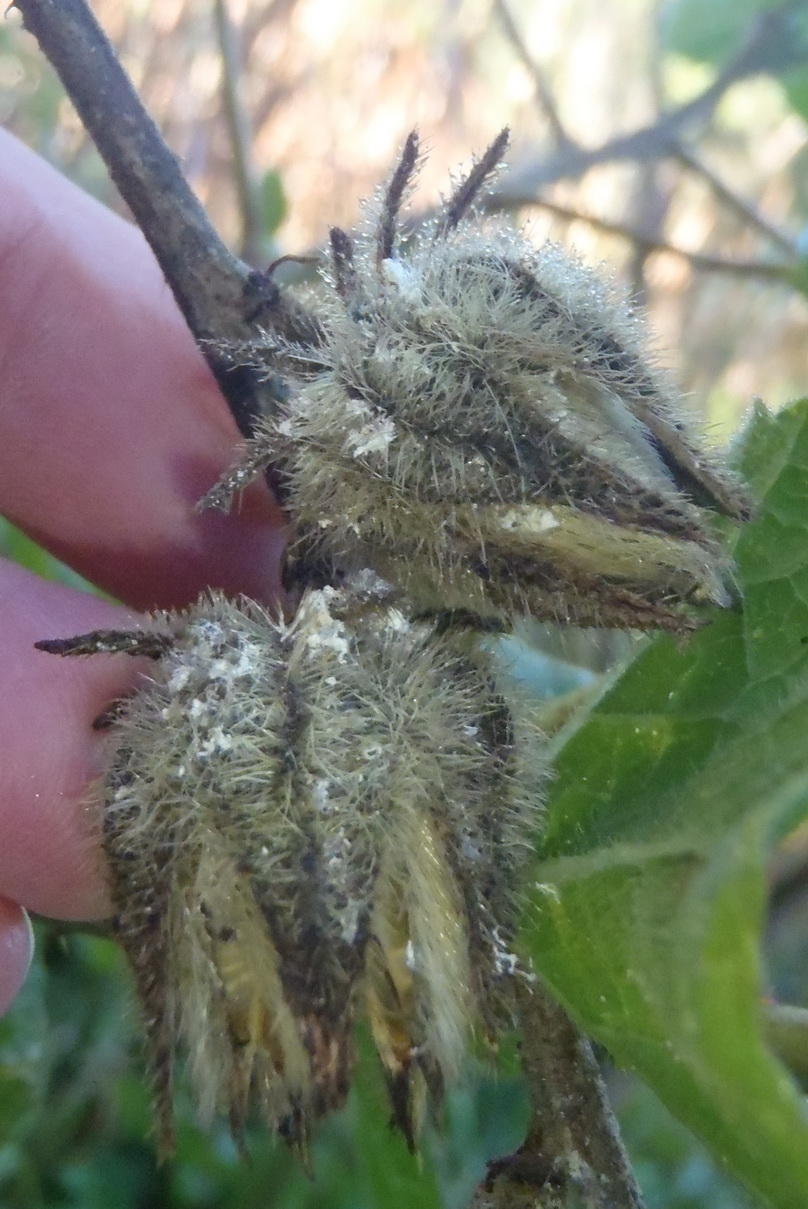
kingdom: Plantae
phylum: Tracheophyta
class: Magnoliopsida
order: Malvales
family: Malvaceae
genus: Hibiscus
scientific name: Hibiscus diversifolius
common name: Cape hibiscus
